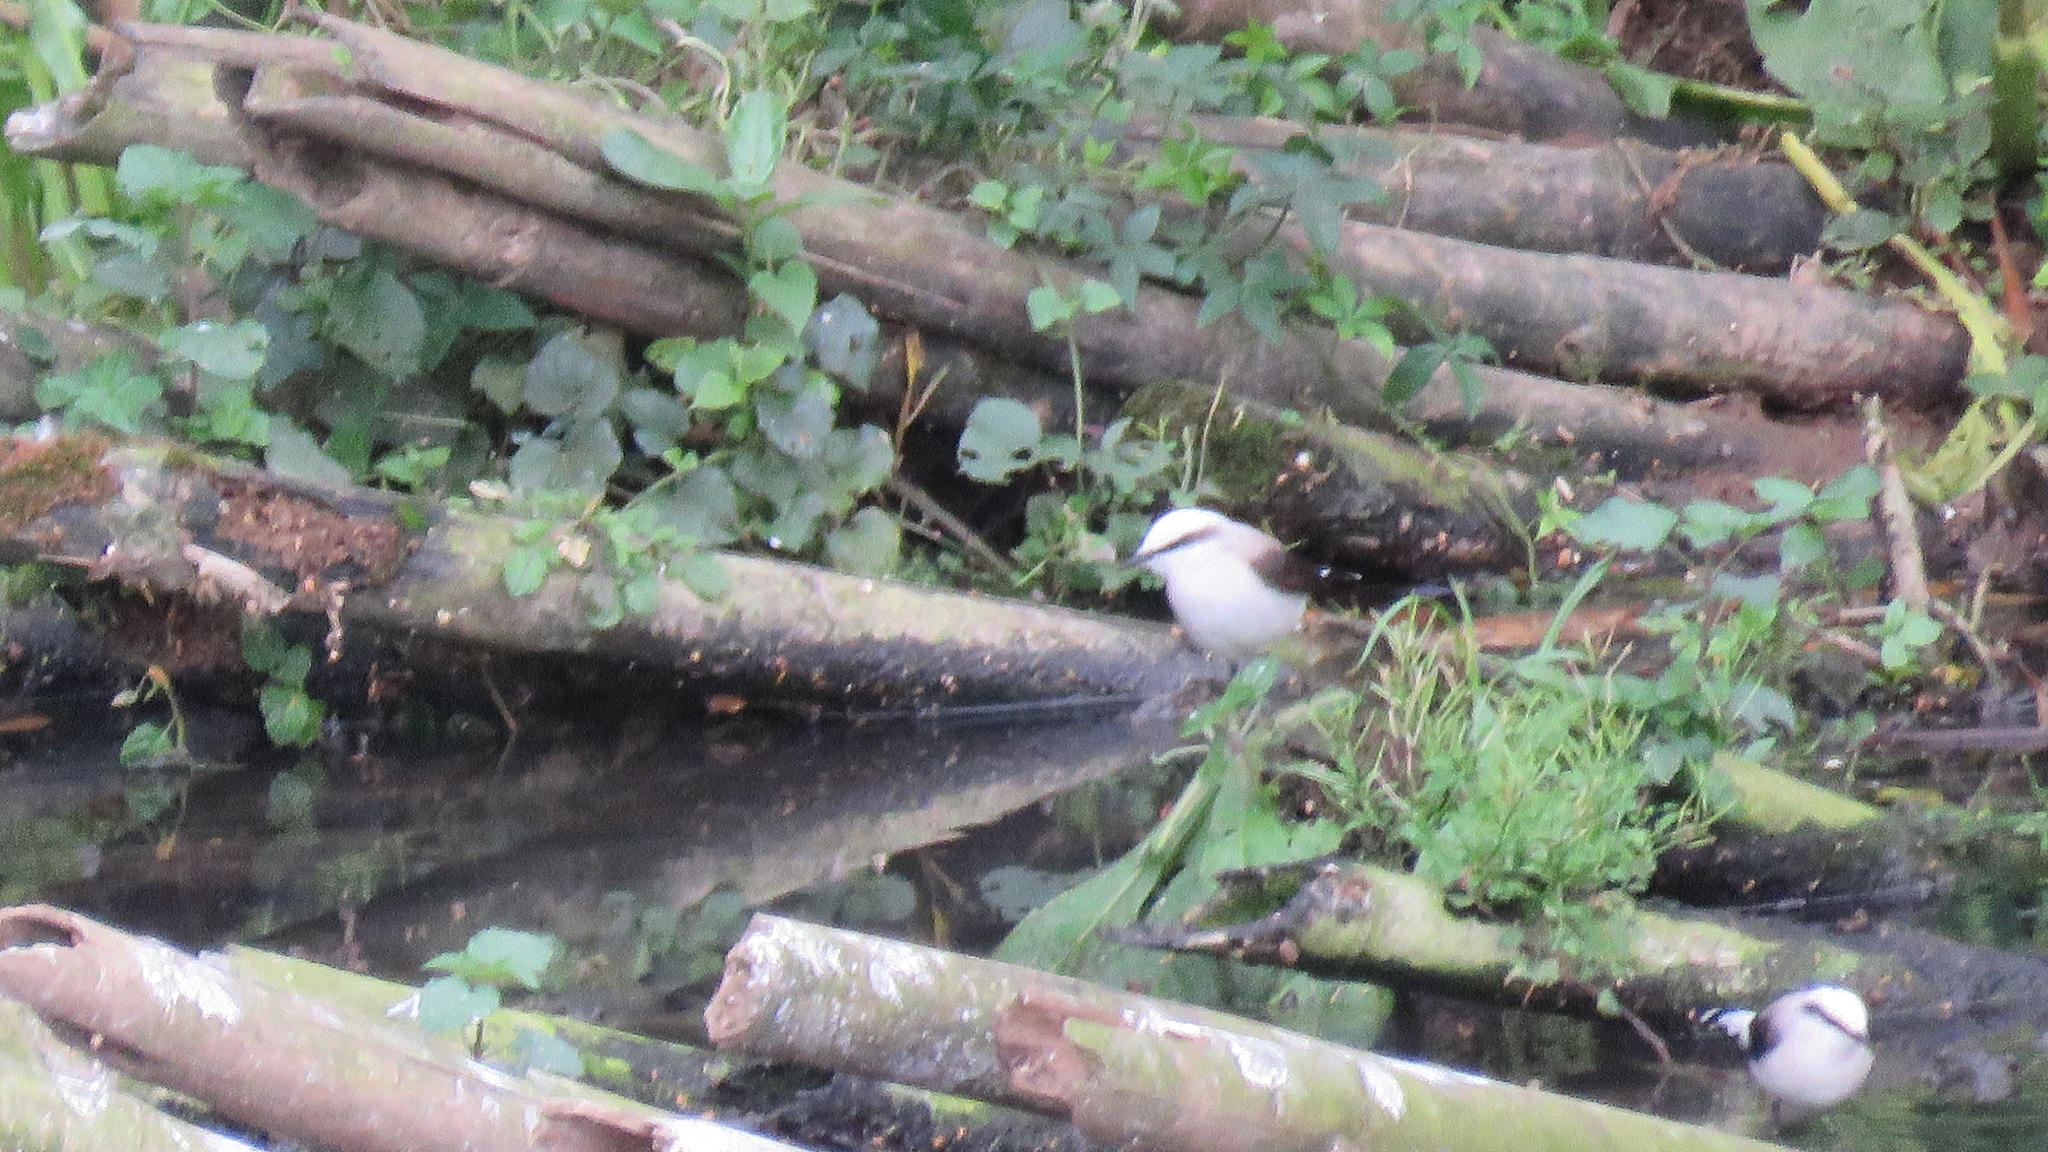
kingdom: Animalia
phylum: Chordata
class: Aves
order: Passeriformes
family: Tyrannidae
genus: Fluvicola
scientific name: Fluvicola nengeta
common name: Masked water tyrant
